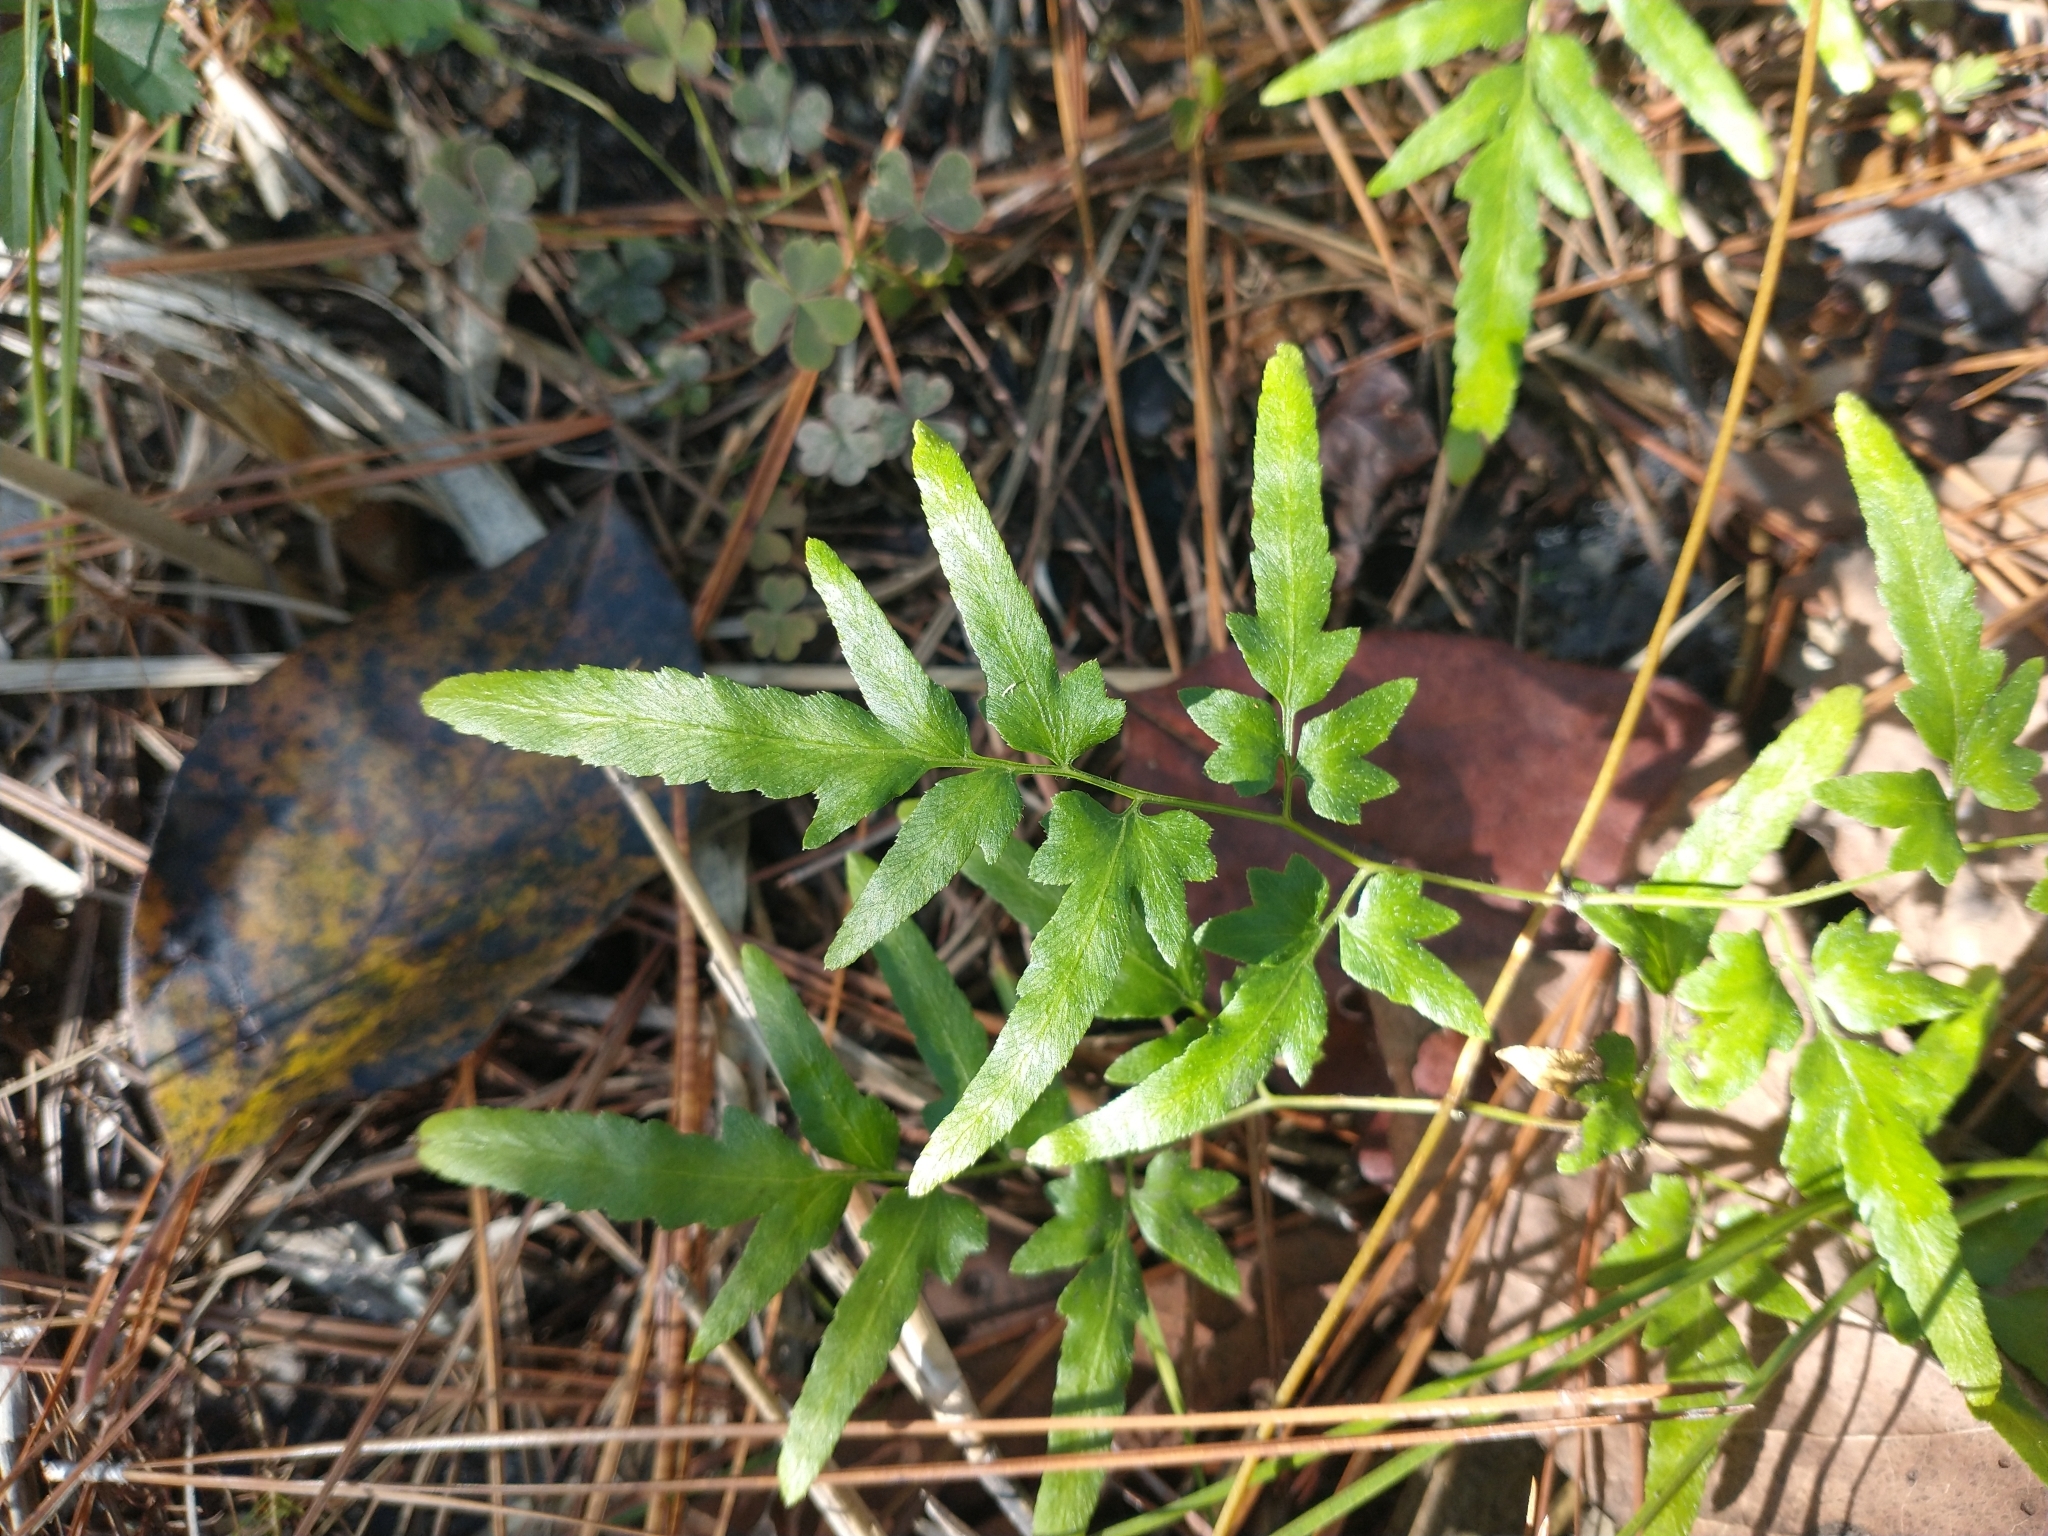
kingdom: Plantae
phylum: Tracheophyta
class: Polypodiopsida
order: Schizaeales
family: Lygodiaceae
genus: Lygodium
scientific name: Lygodium japonicum
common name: Japanese climbing fern
